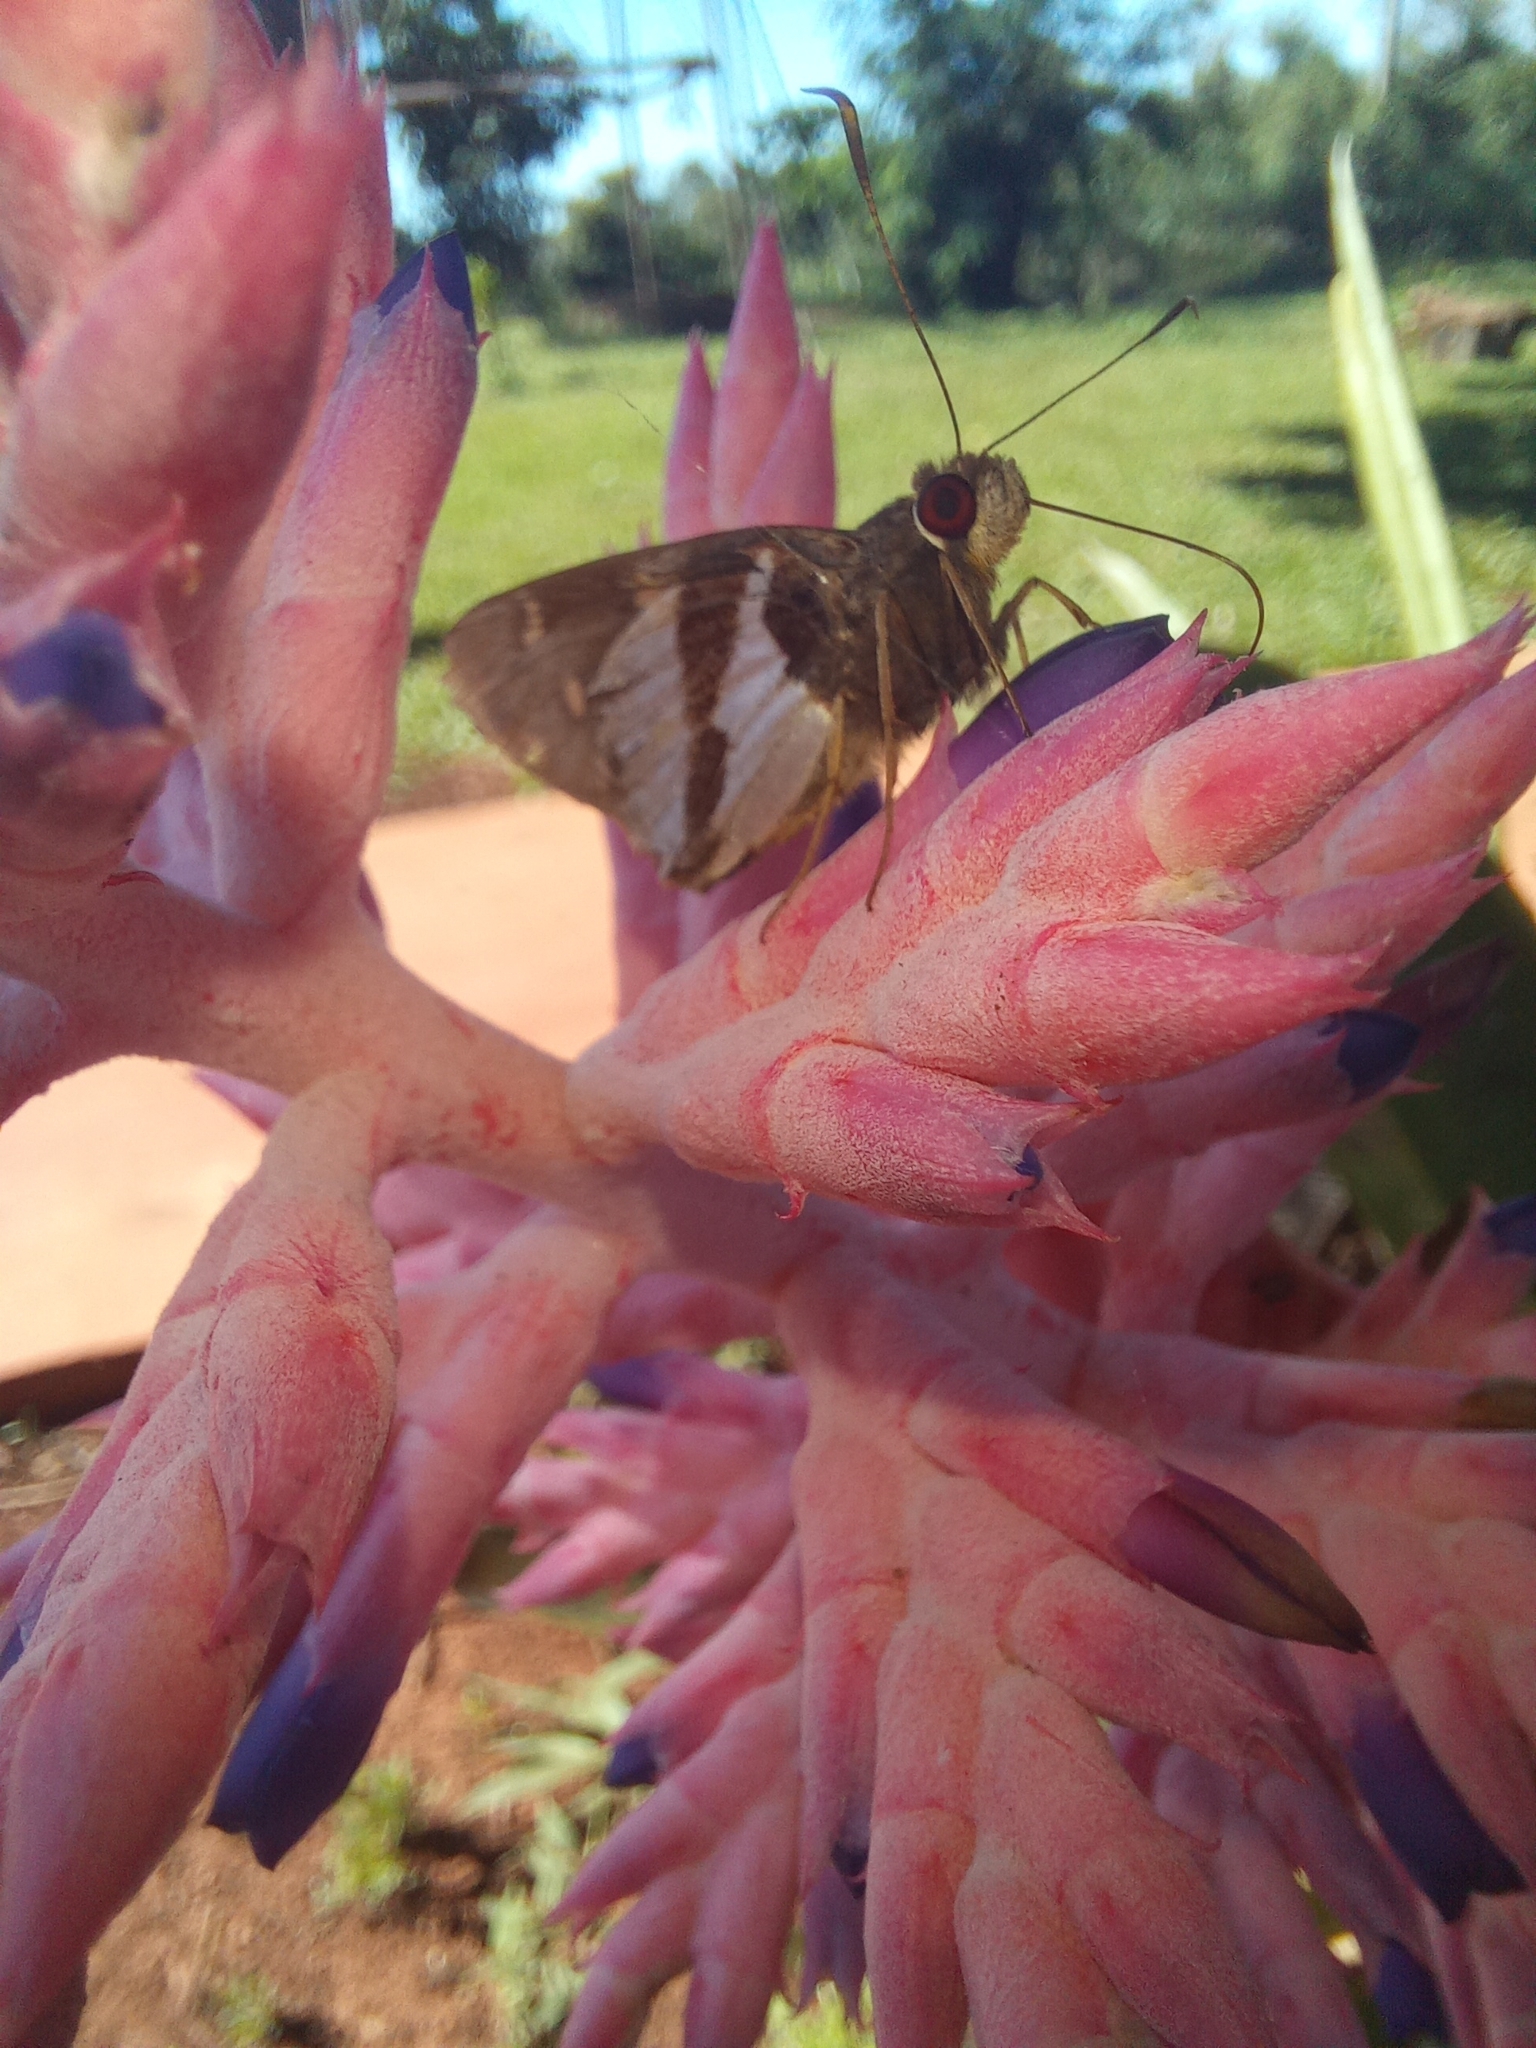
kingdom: Animalia
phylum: Arthropoda
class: Insecta
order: Lepidoptera
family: Hesperiidae
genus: Lycas
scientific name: Lycas argentea
